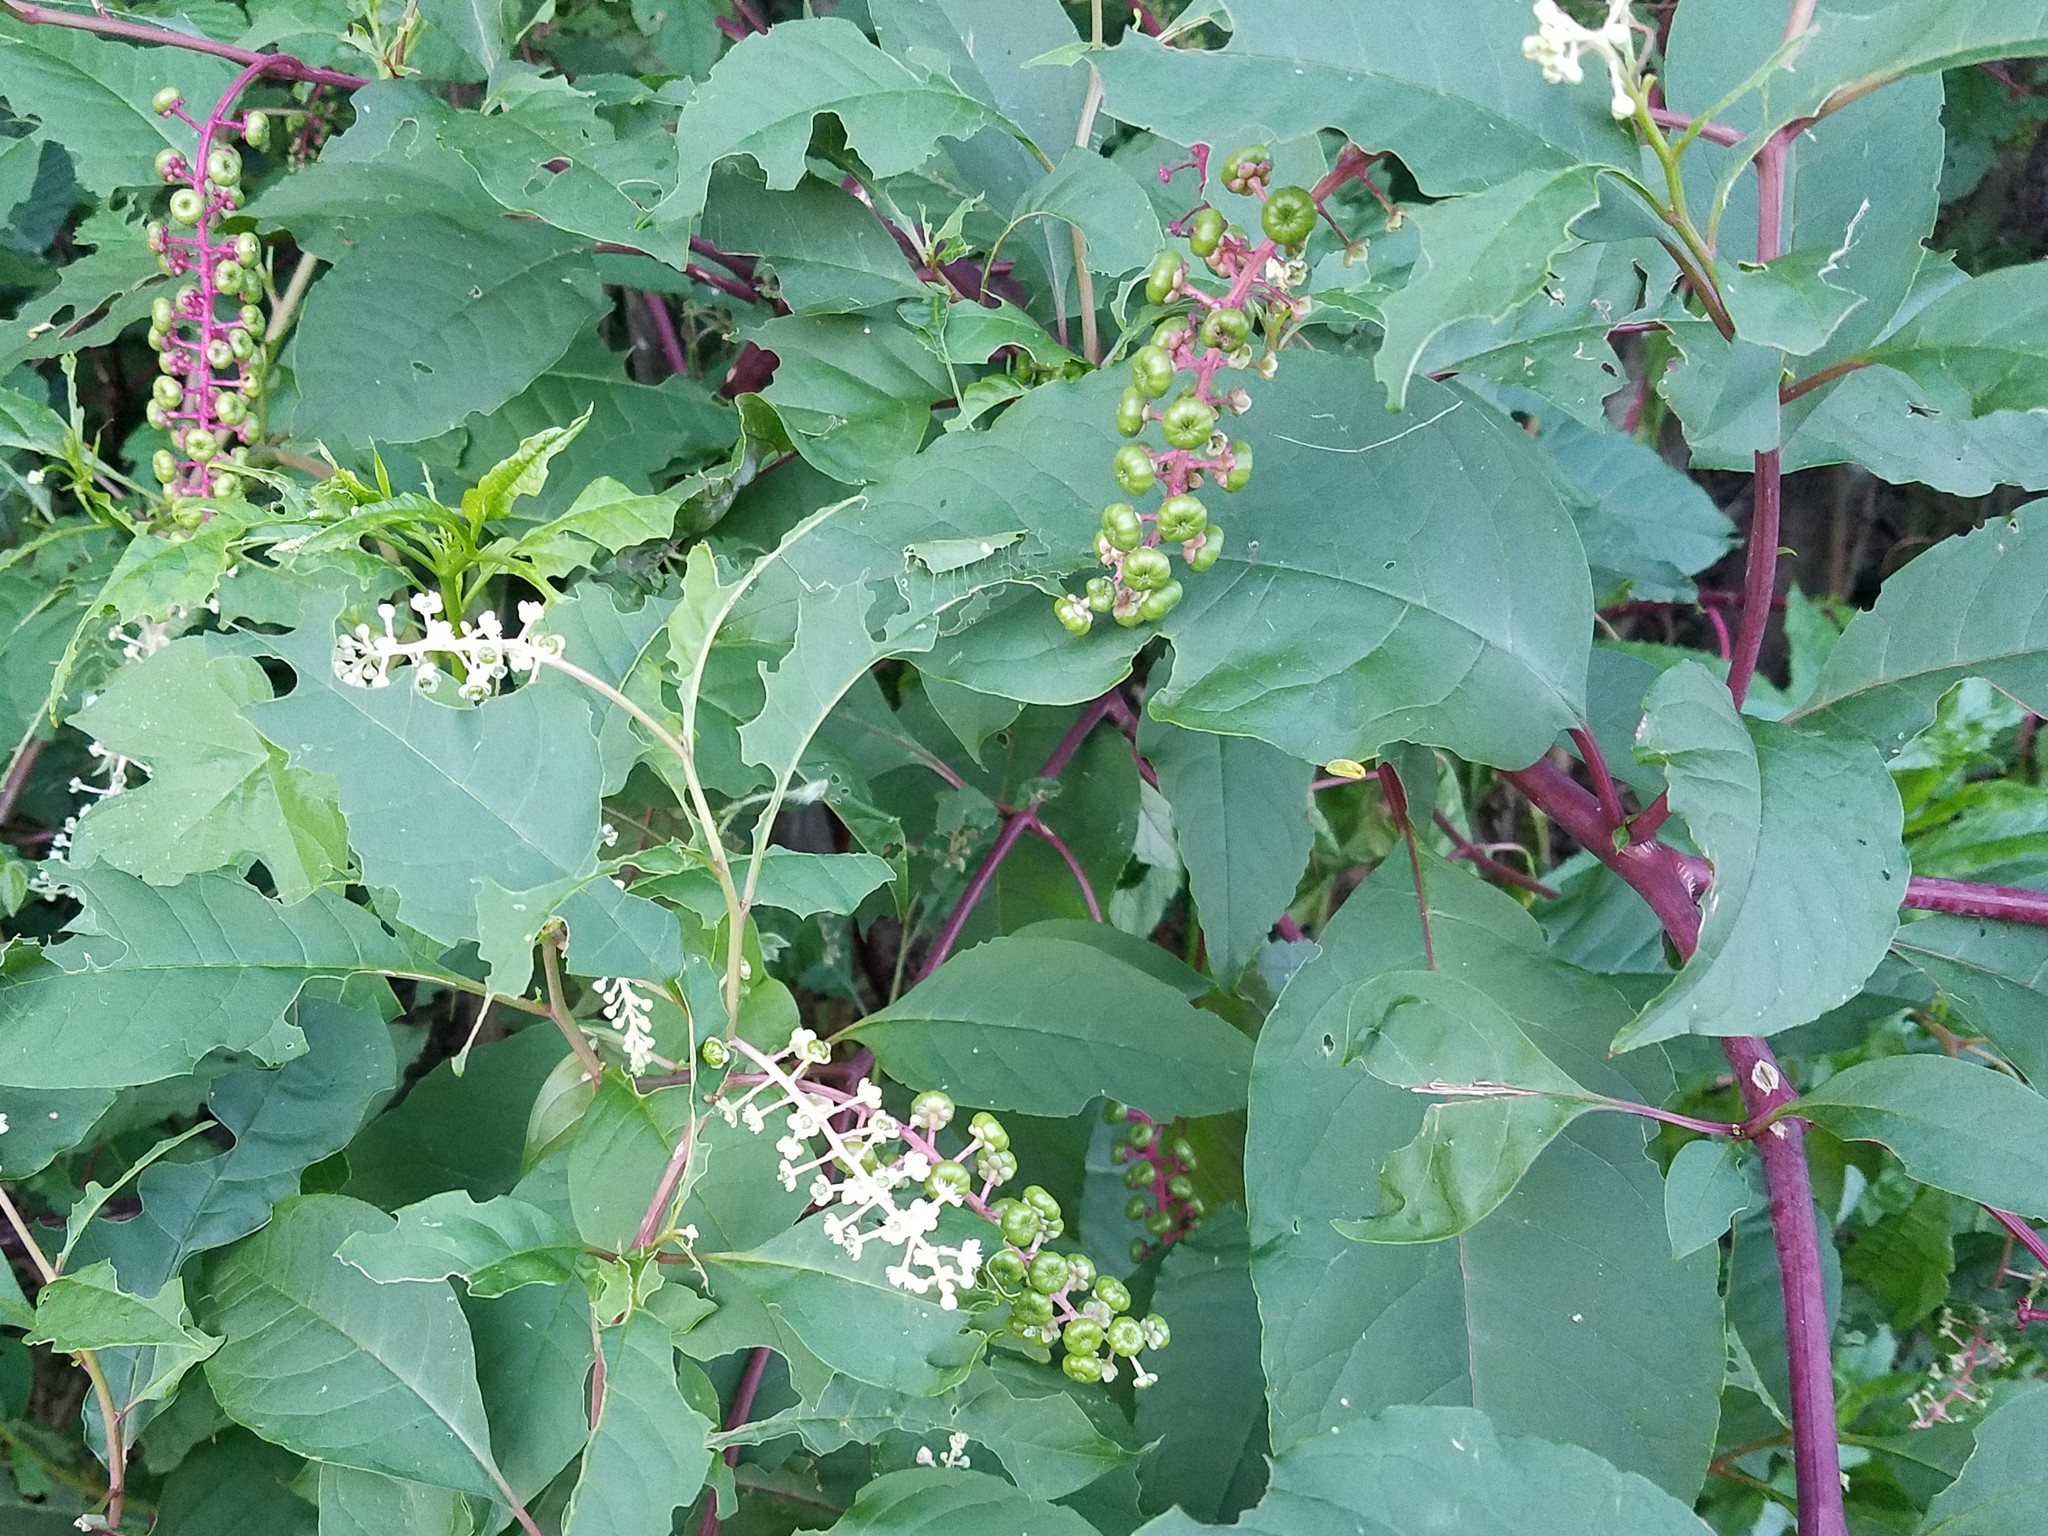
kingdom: Plantae
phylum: Tracheophyta
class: Magnoliopsida
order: Caryophyllales
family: Phytolaccaceae
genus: Phytolacca
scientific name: Phytolacca americana
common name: American pokeweed
